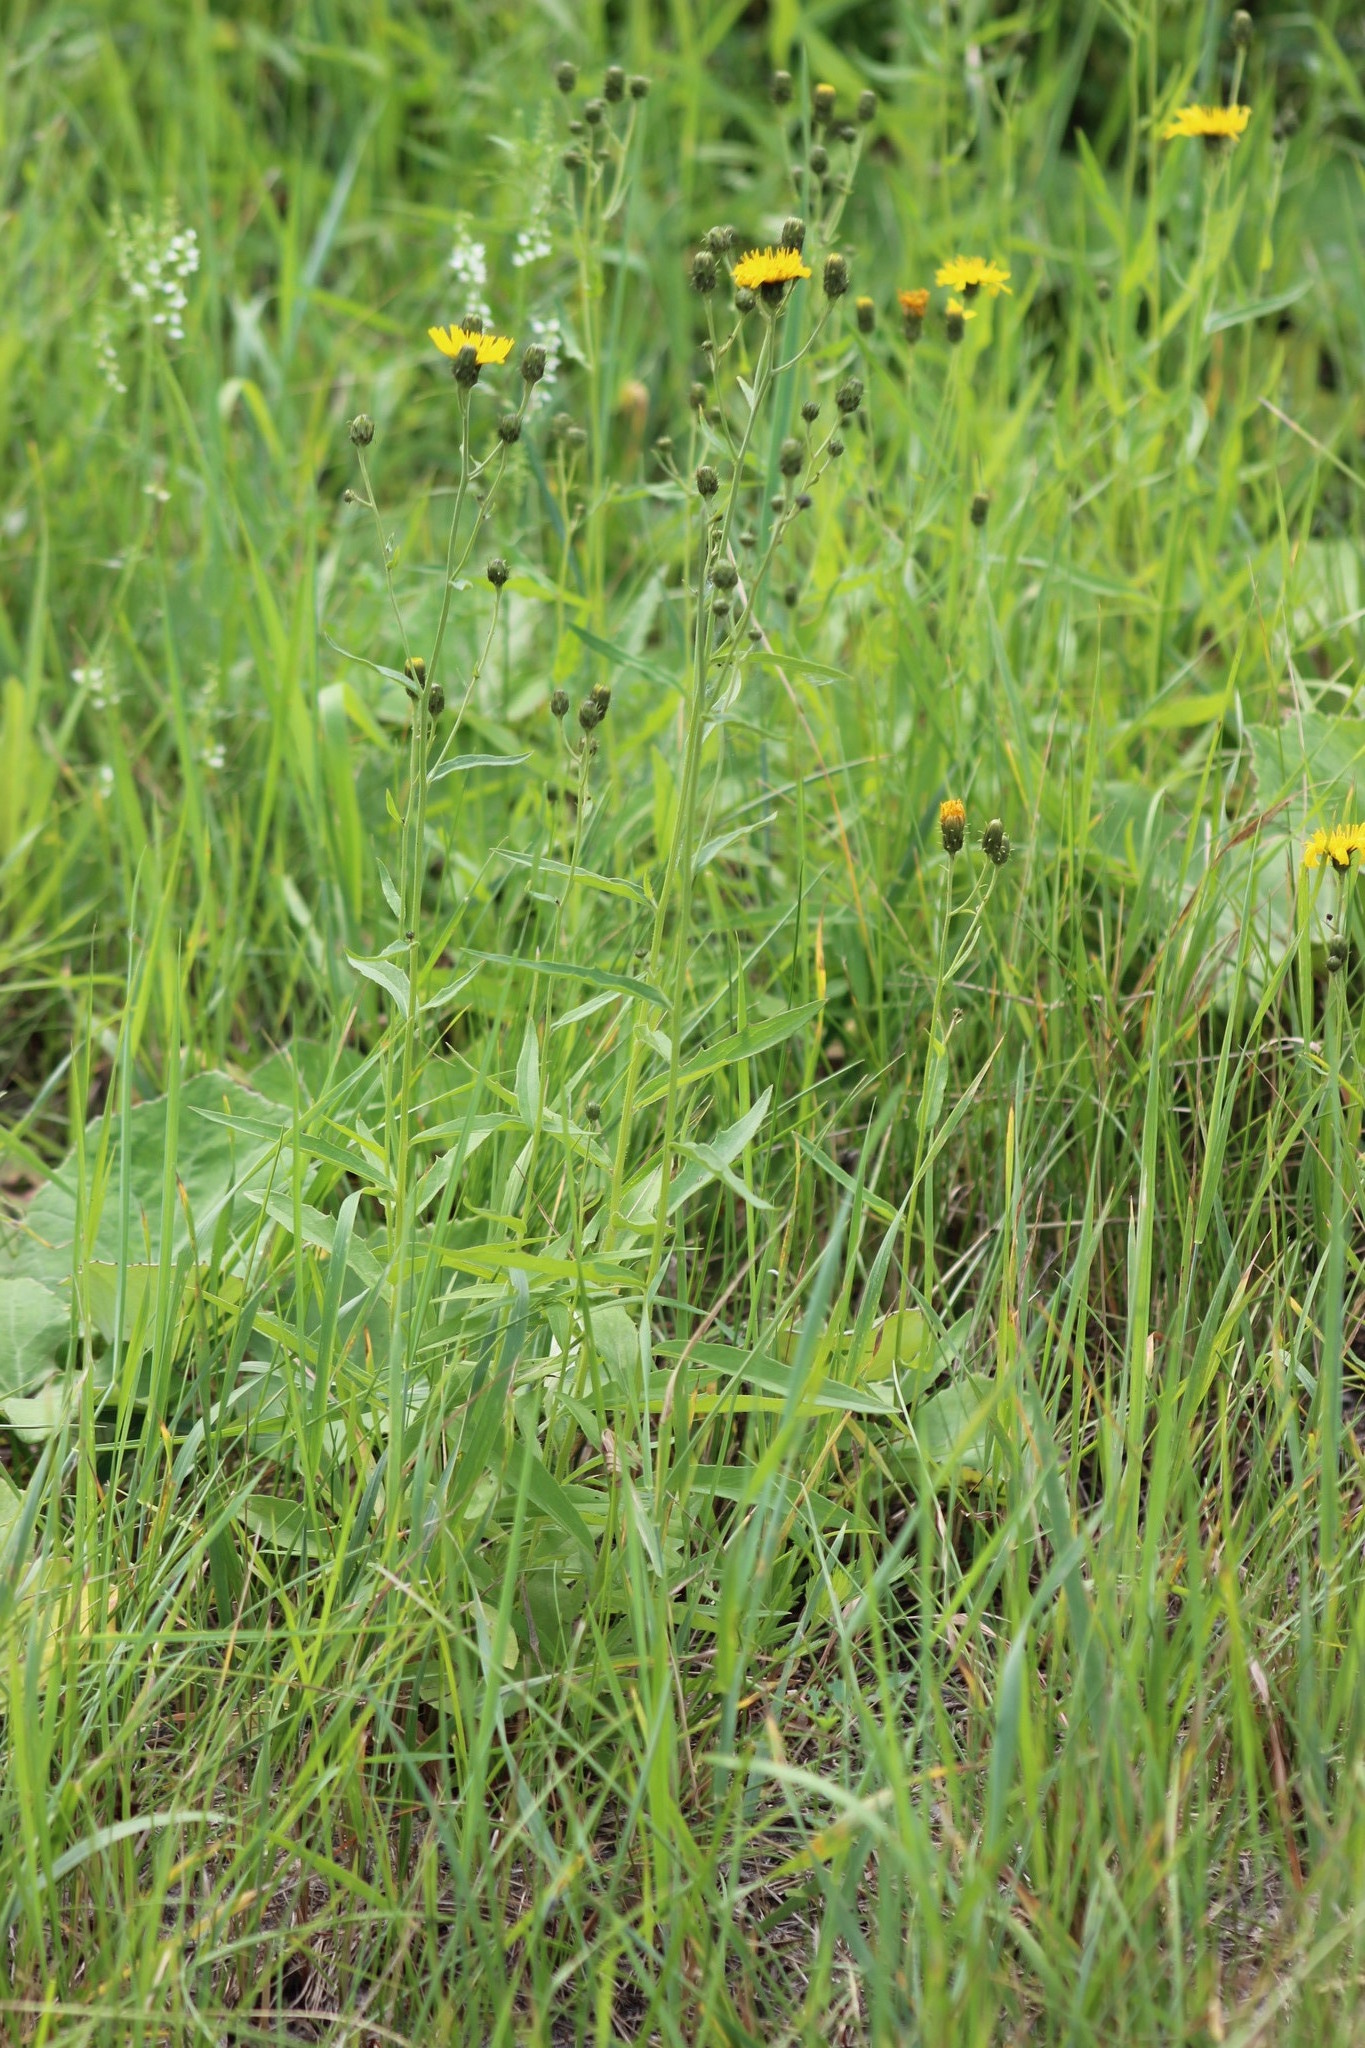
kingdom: Plantae
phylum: Tracheophyta
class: Magnoliopsida
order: Asterales
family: Asteraceae
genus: Hieracium
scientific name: Hieracium umbellatum
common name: Northern hawkweed
